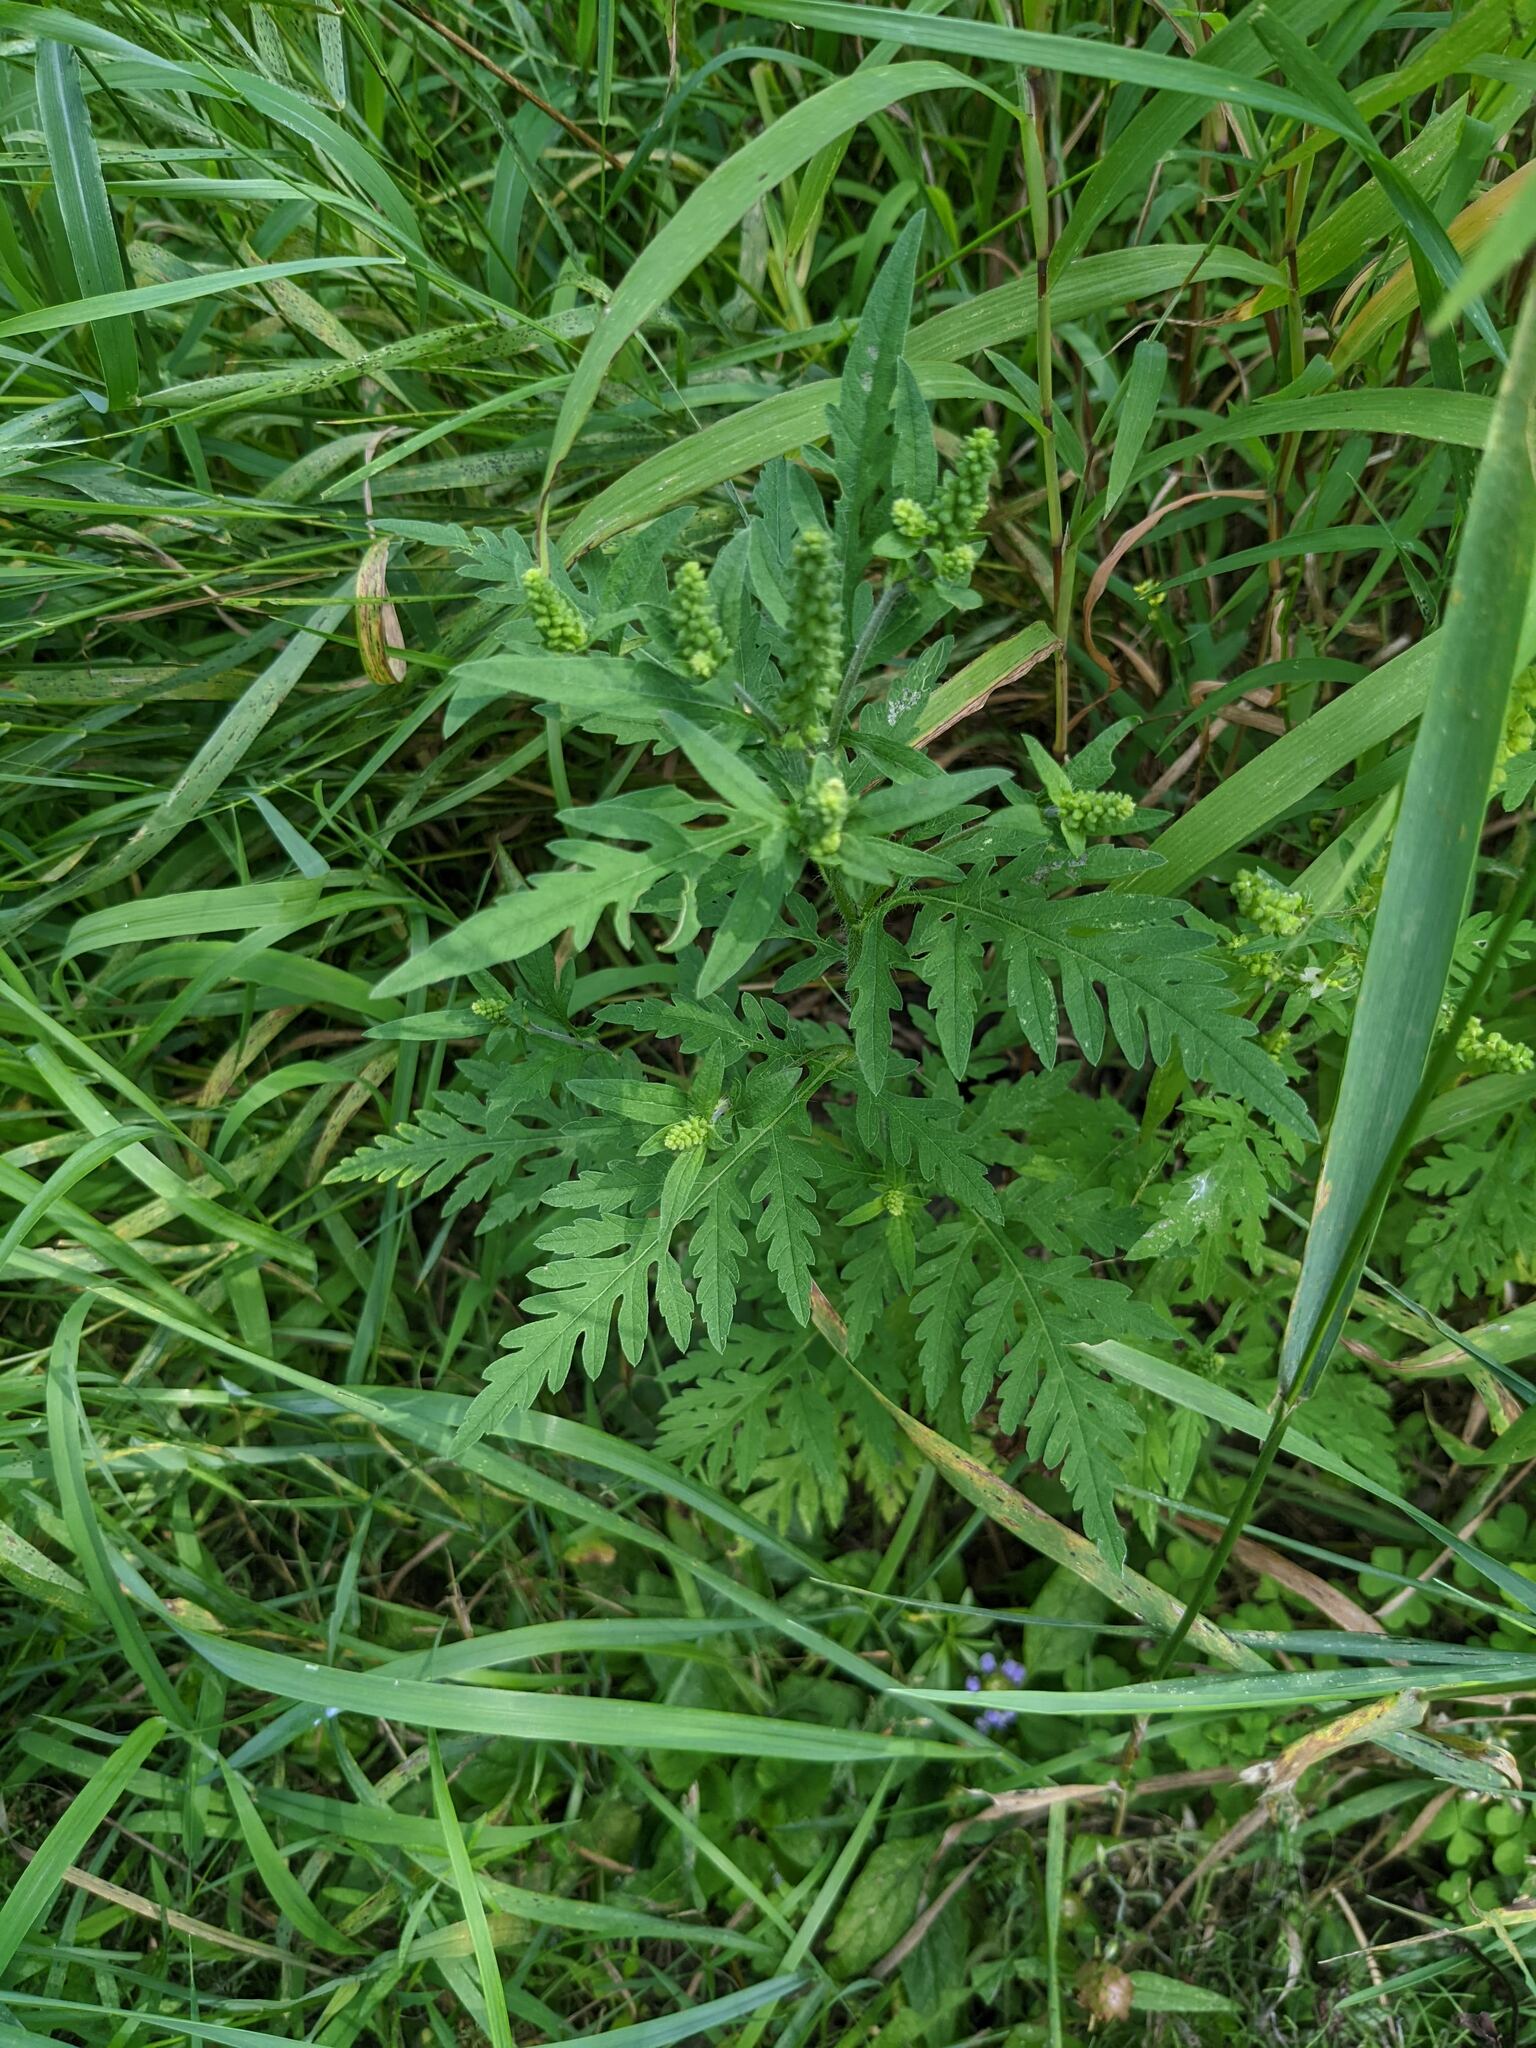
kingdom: Plantae
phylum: Tracheophyta
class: Magnoliopsida
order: Asterales
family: Asteraceae
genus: Ambrosia
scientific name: Ambrosia artemisiifolia
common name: Annual ragweed
